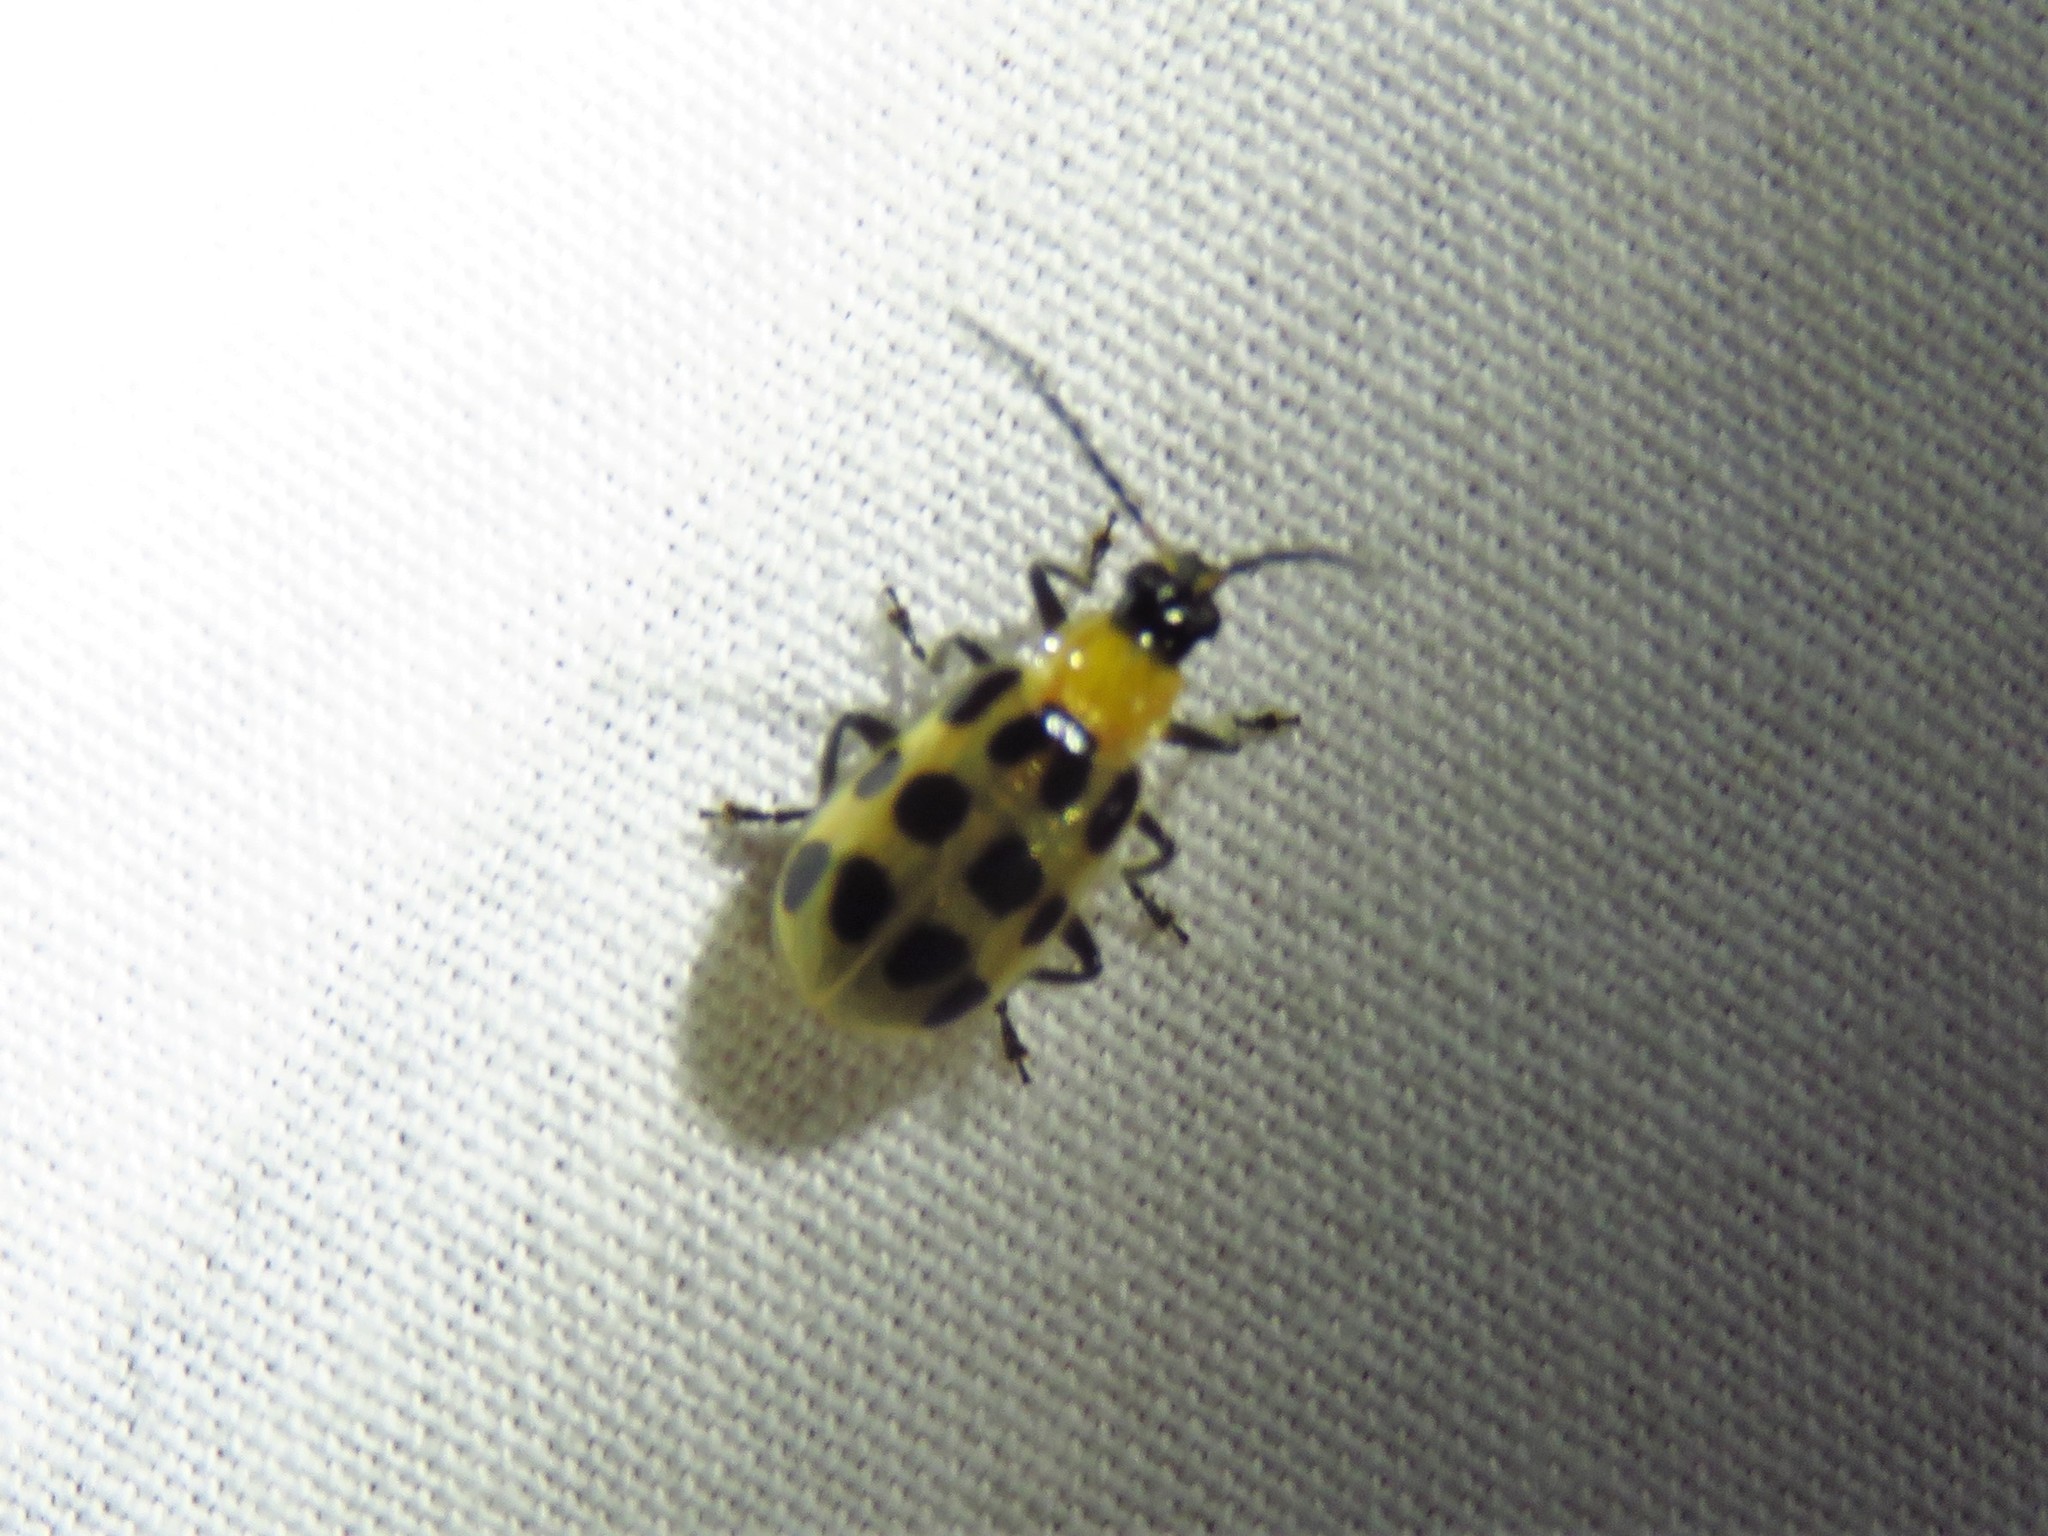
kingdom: Animalia
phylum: Arthropoda
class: Insecta
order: Coleoptera
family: Chrysomelidae
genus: Diabrotica
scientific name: Diabrotica undecimpunctata
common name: Spotted cucumber beetle
